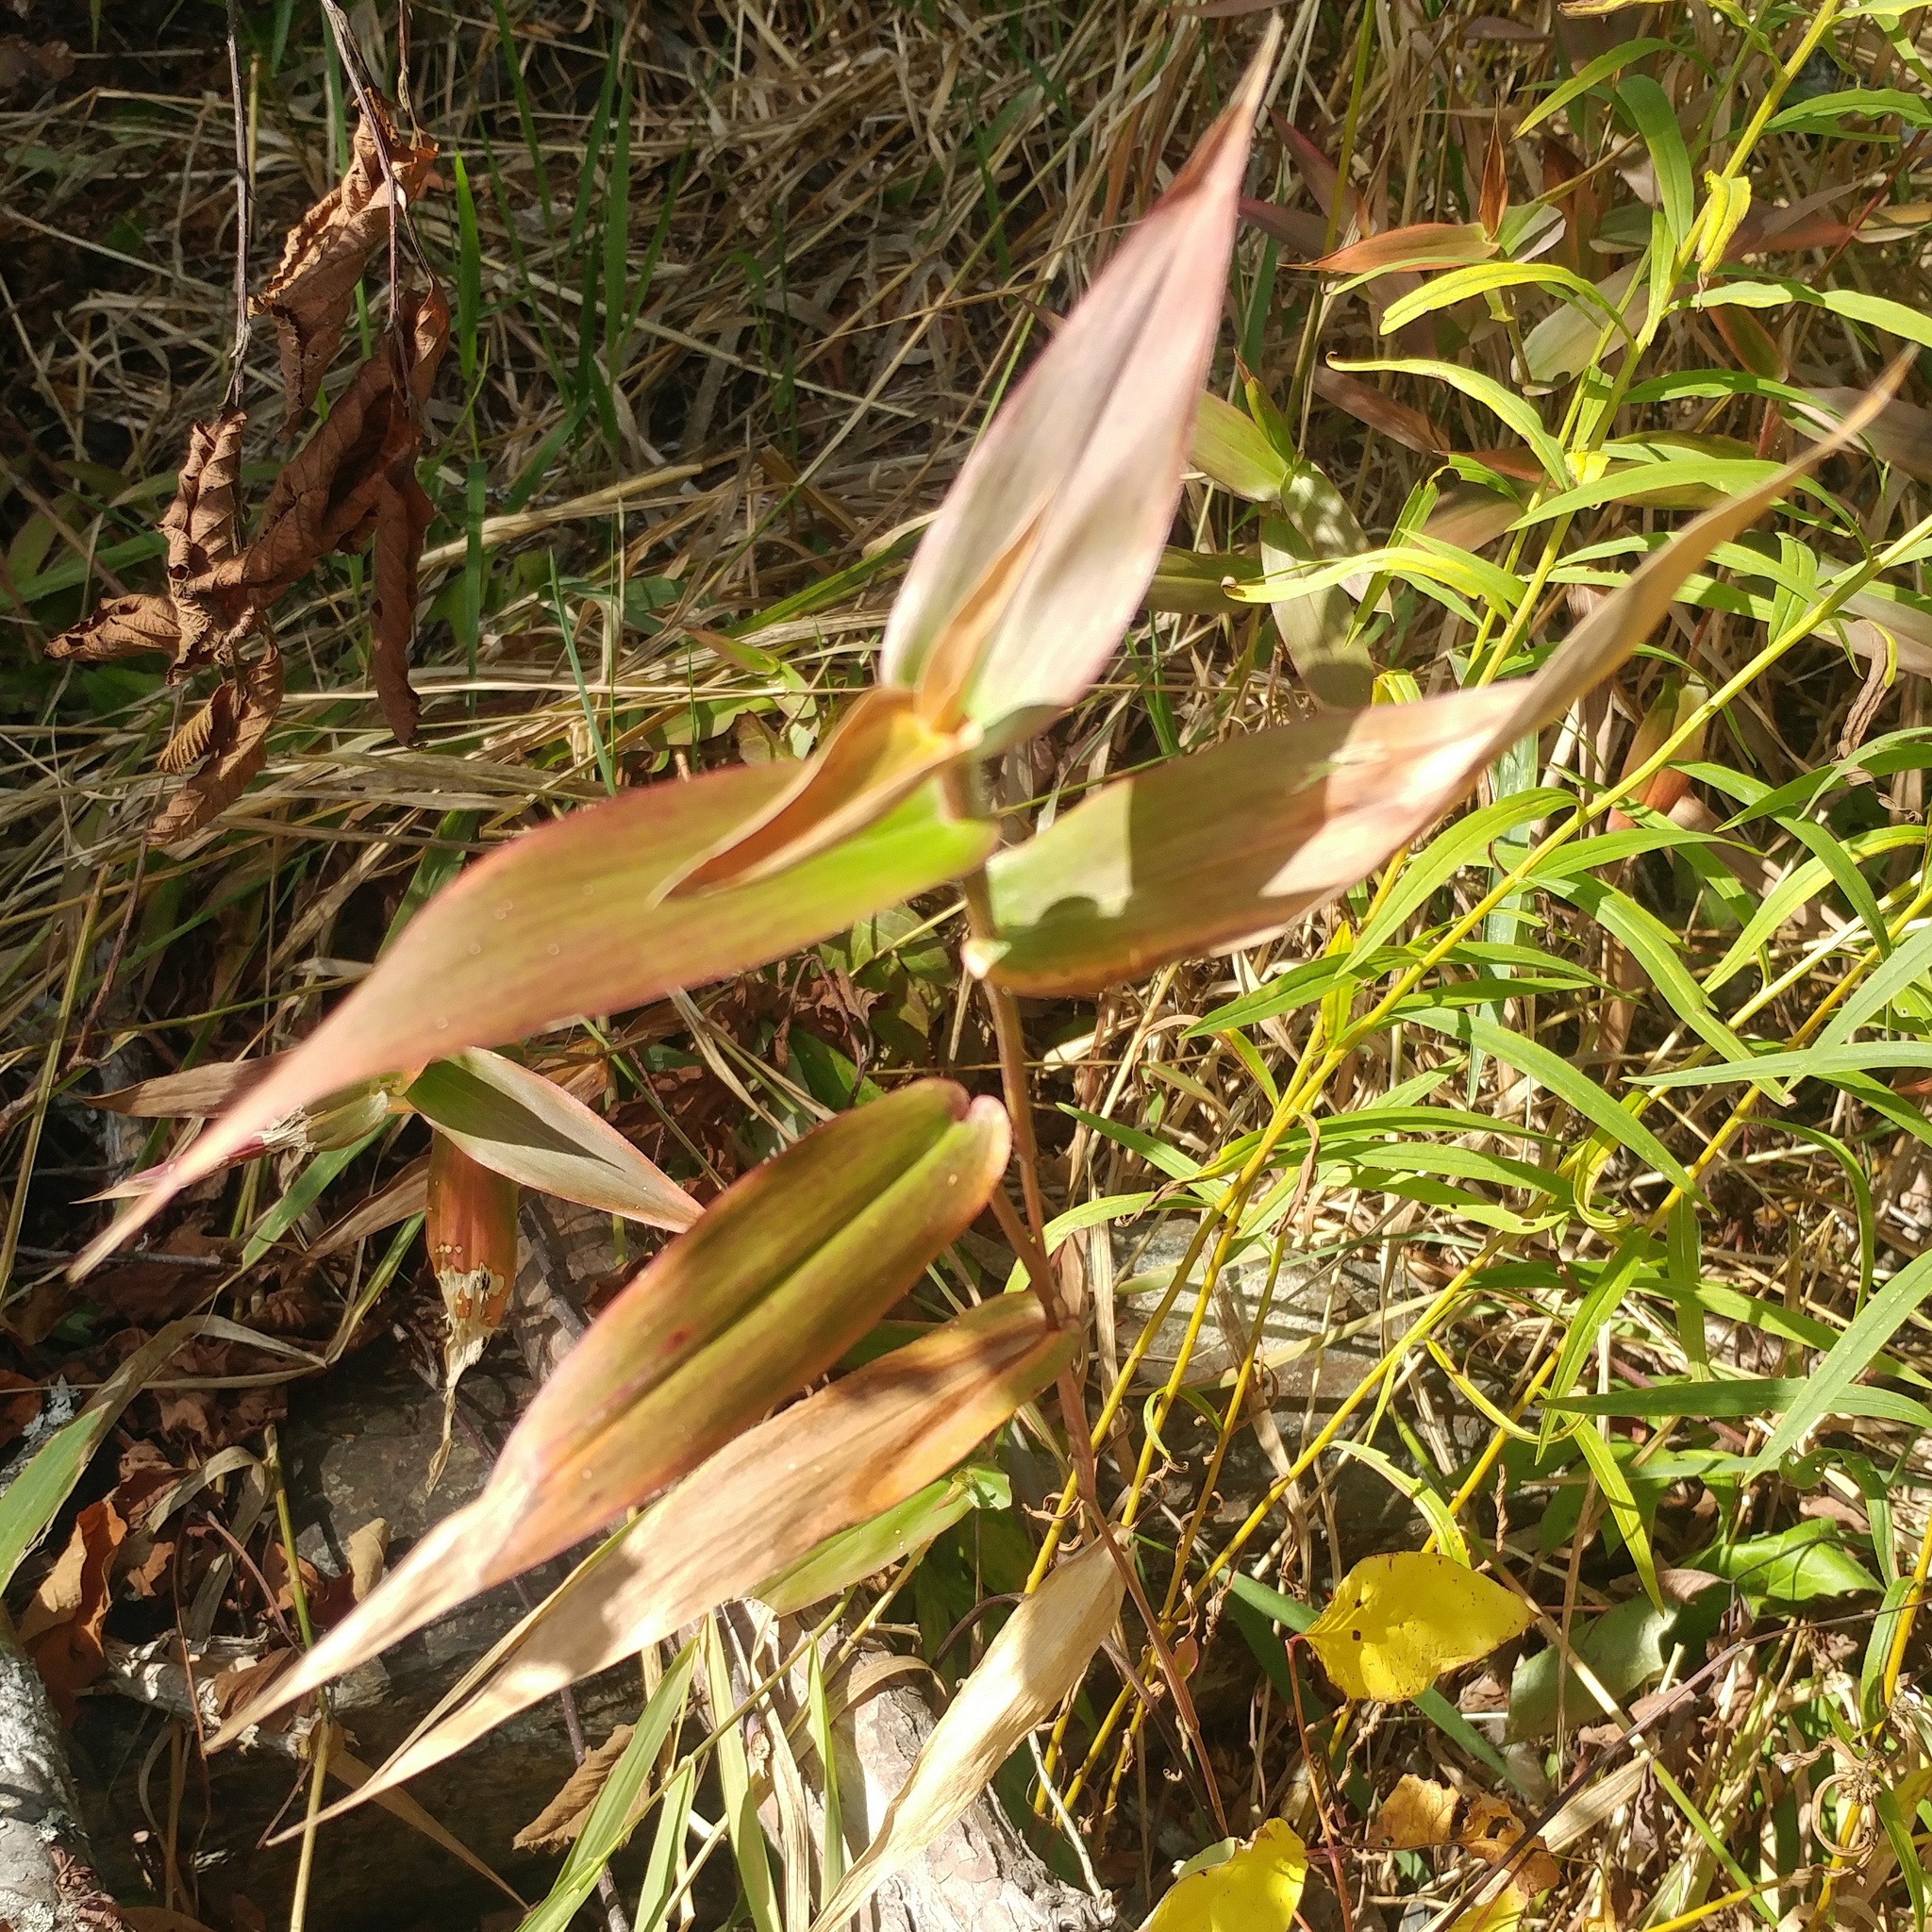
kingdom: Plantae
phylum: Tracheophyta
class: Liliopsida
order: Poales
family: Poaceae
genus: Dichanthelium
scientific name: Dichanthelium clandestinum
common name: Deer-tongue grass
